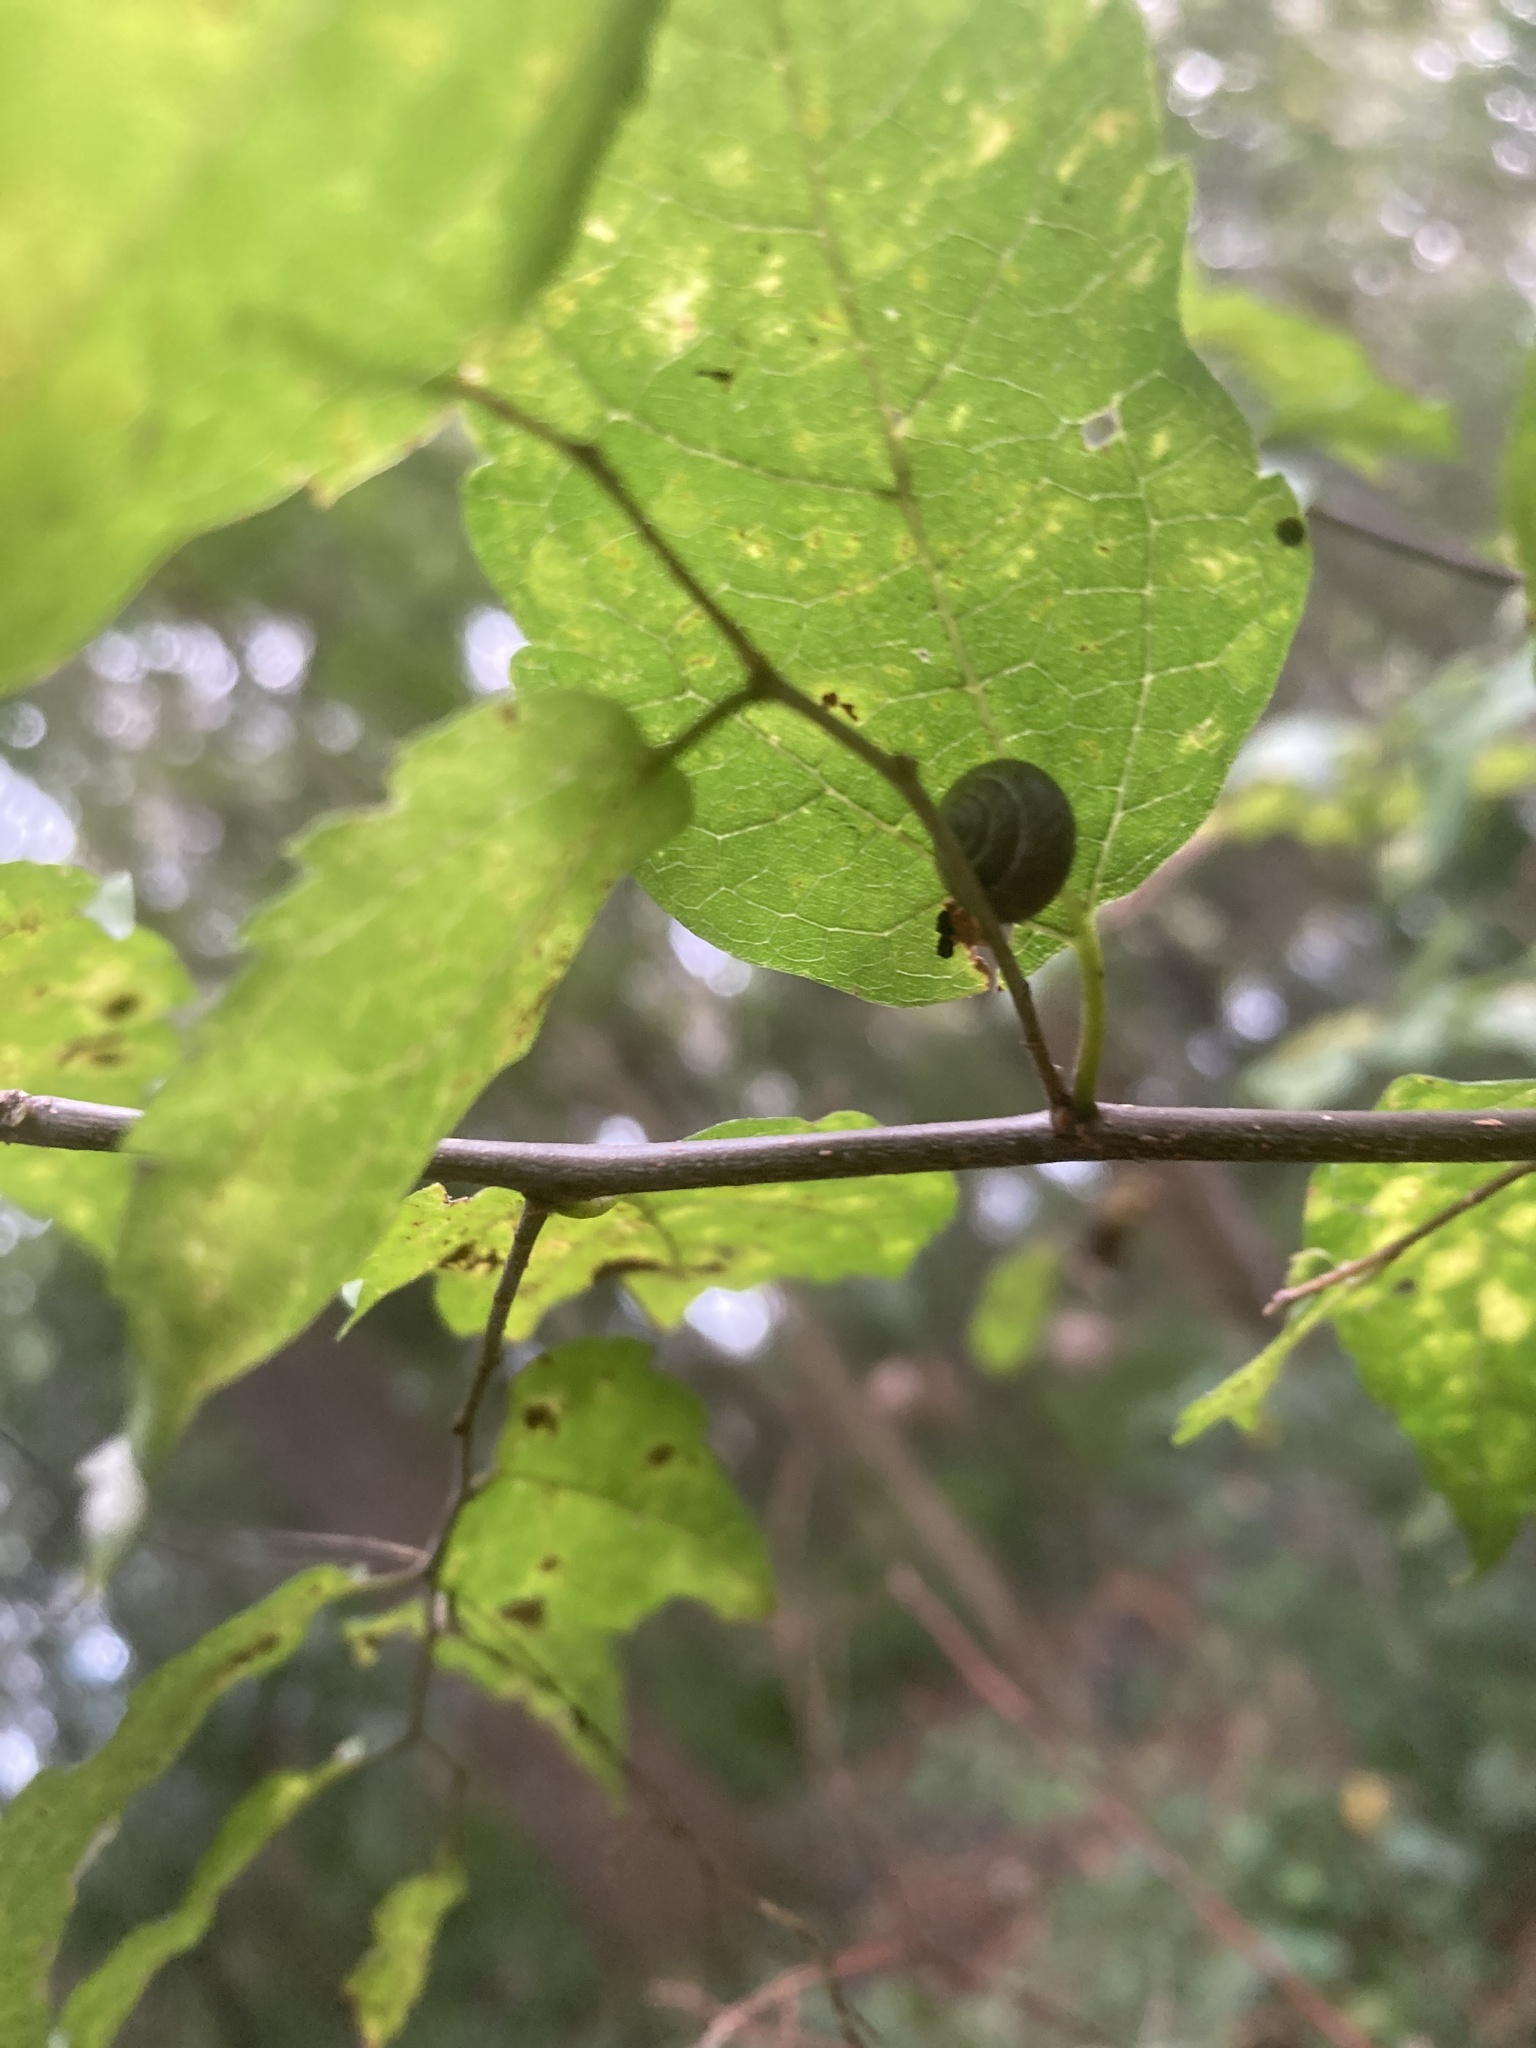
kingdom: Animalia
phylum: Mollusca
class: Gastropoda
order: Cycloneritida
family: Helicinidae
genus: Helicina
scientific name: Helicina orbiculata
